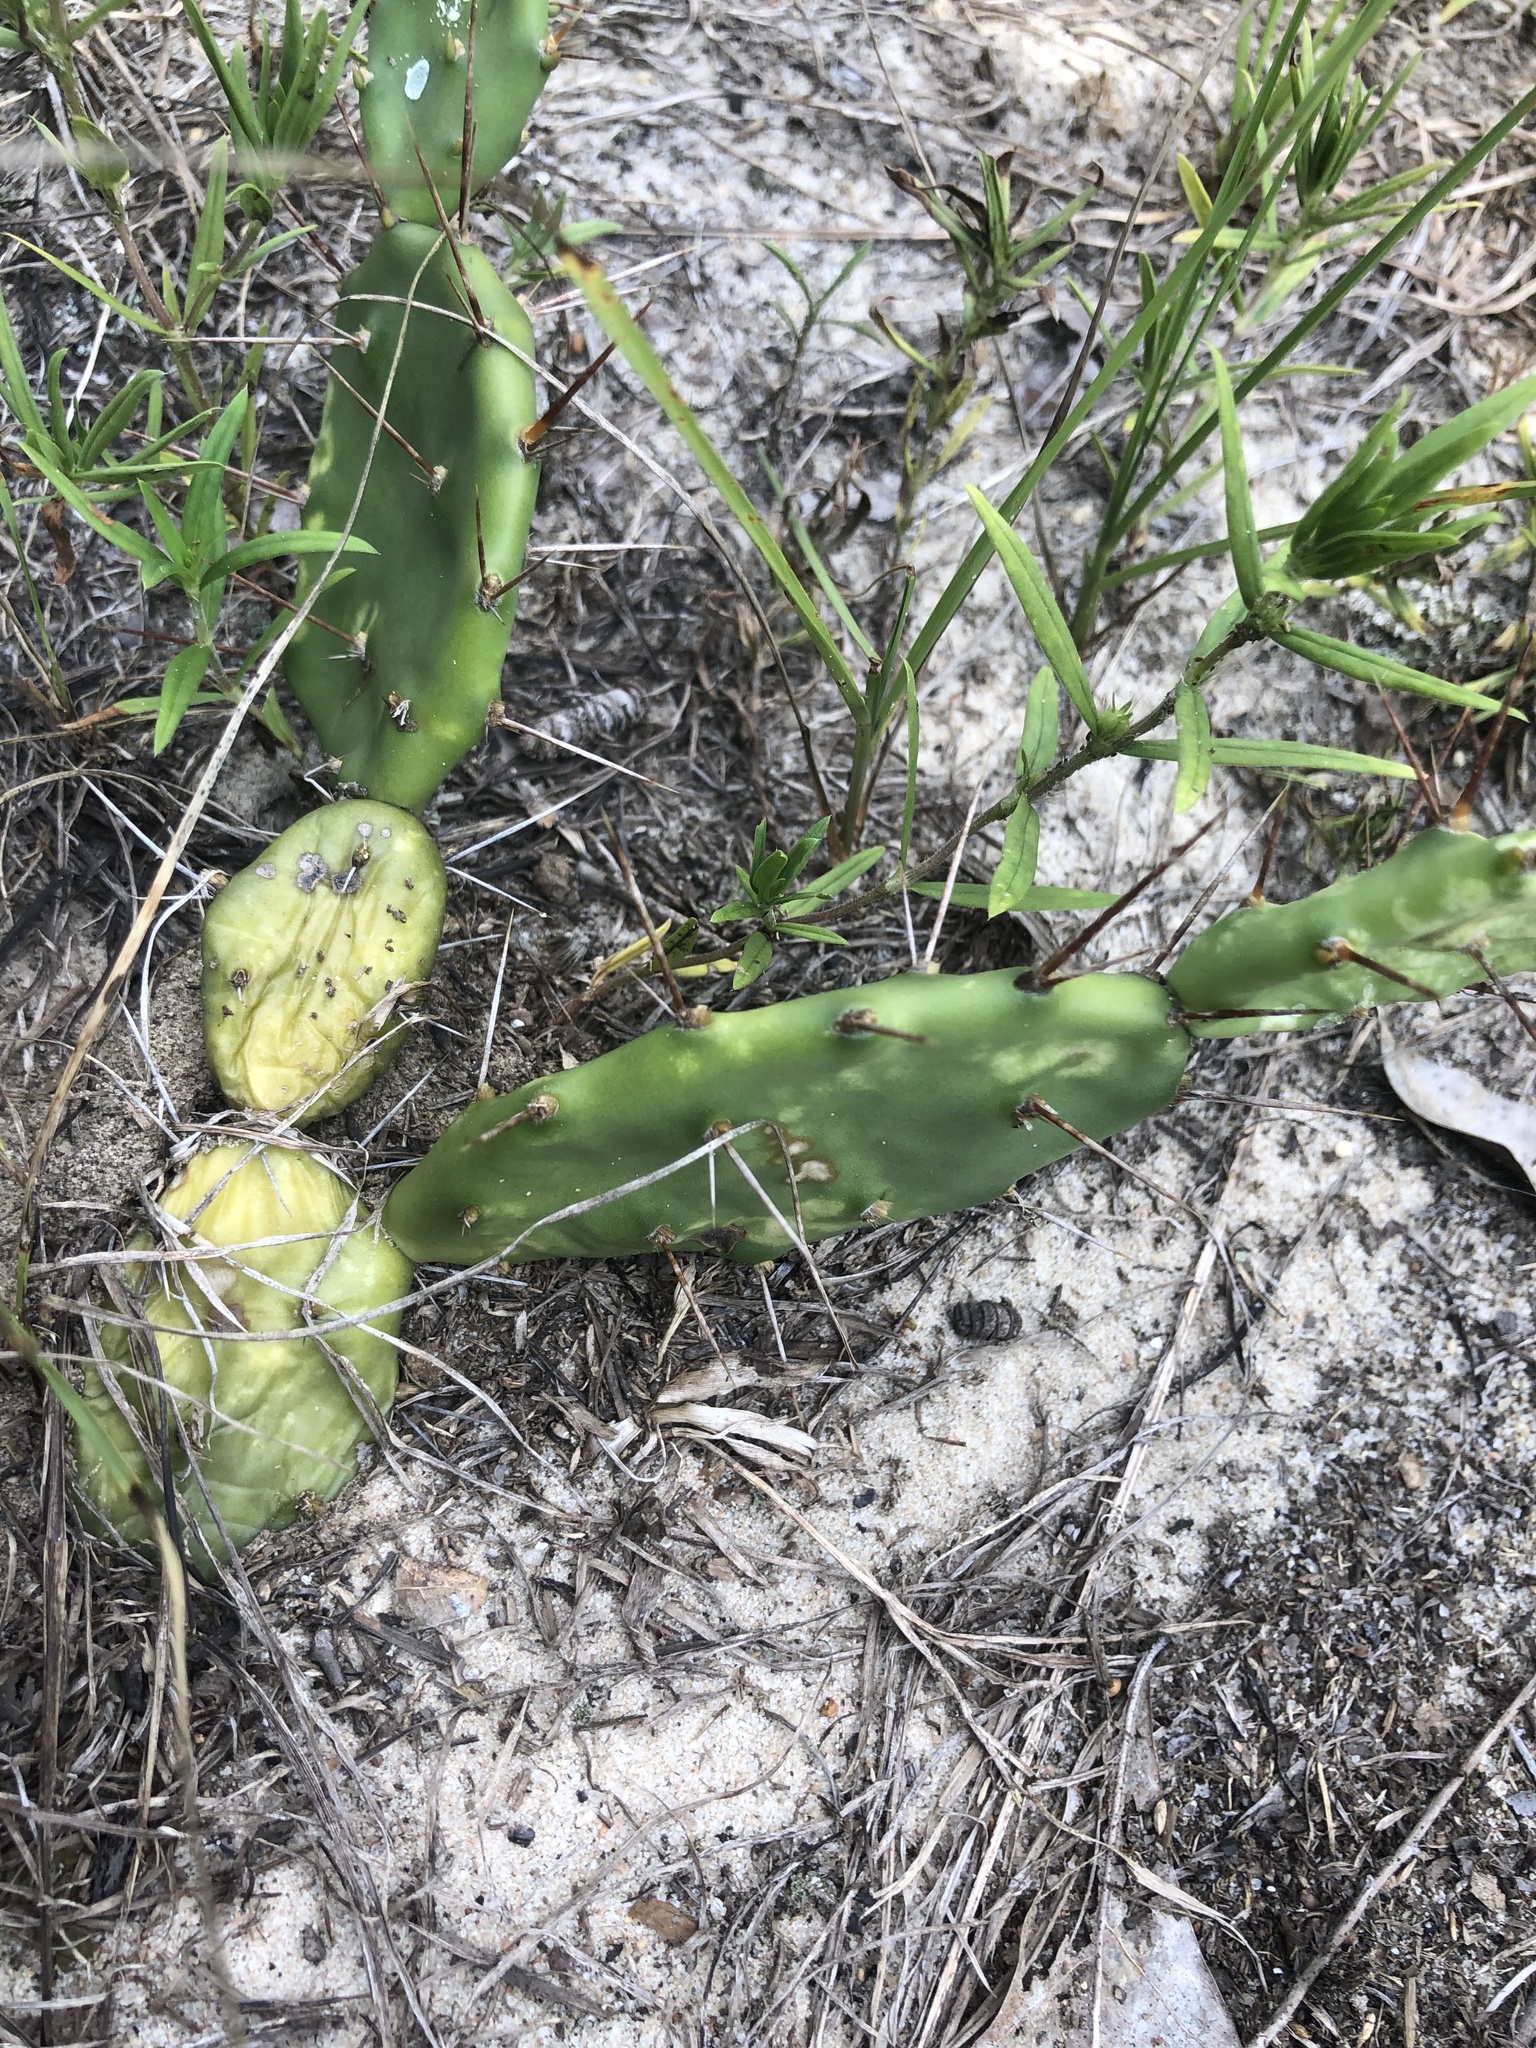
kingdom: Plantae
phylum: Tracheophyta
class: Magnoliopsida
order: Caryophyllales
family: Cactaceae
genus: Opuntia
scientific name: Opuntia drummondii
